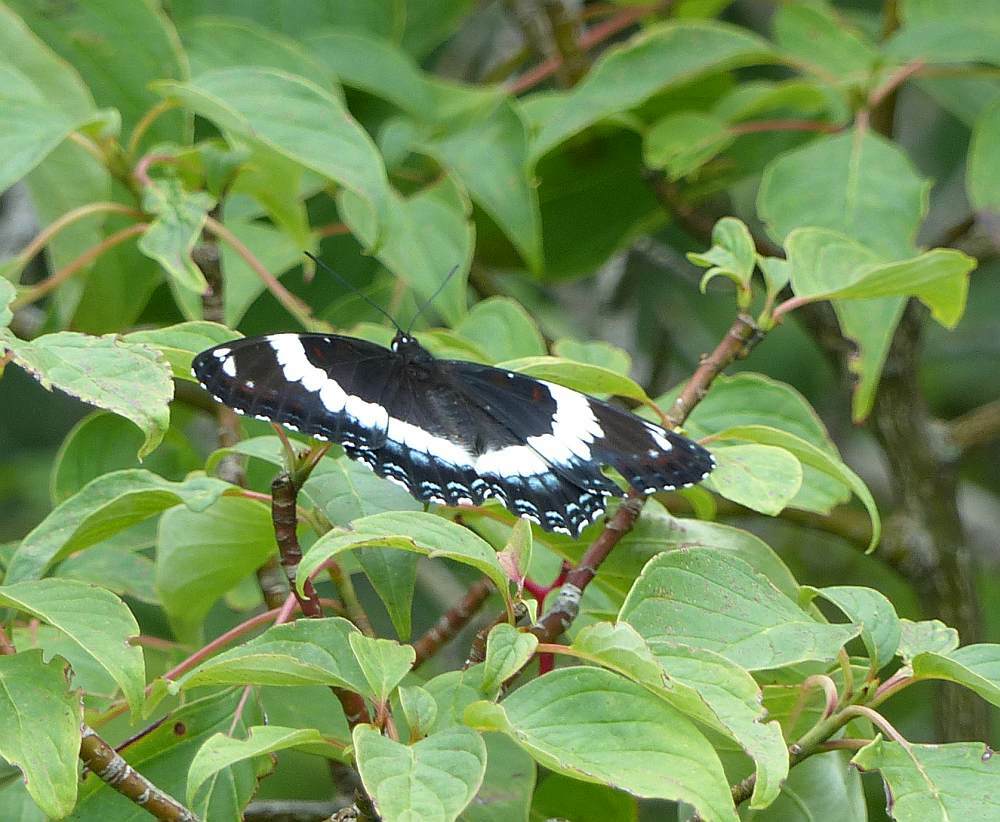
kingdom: Animalia
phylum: Arthropoda
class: Insecta
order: Lepidoptera
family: Nymphalidae
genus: Limenitis
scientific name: Limenitis arthemis
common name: Red-spotted admiral
